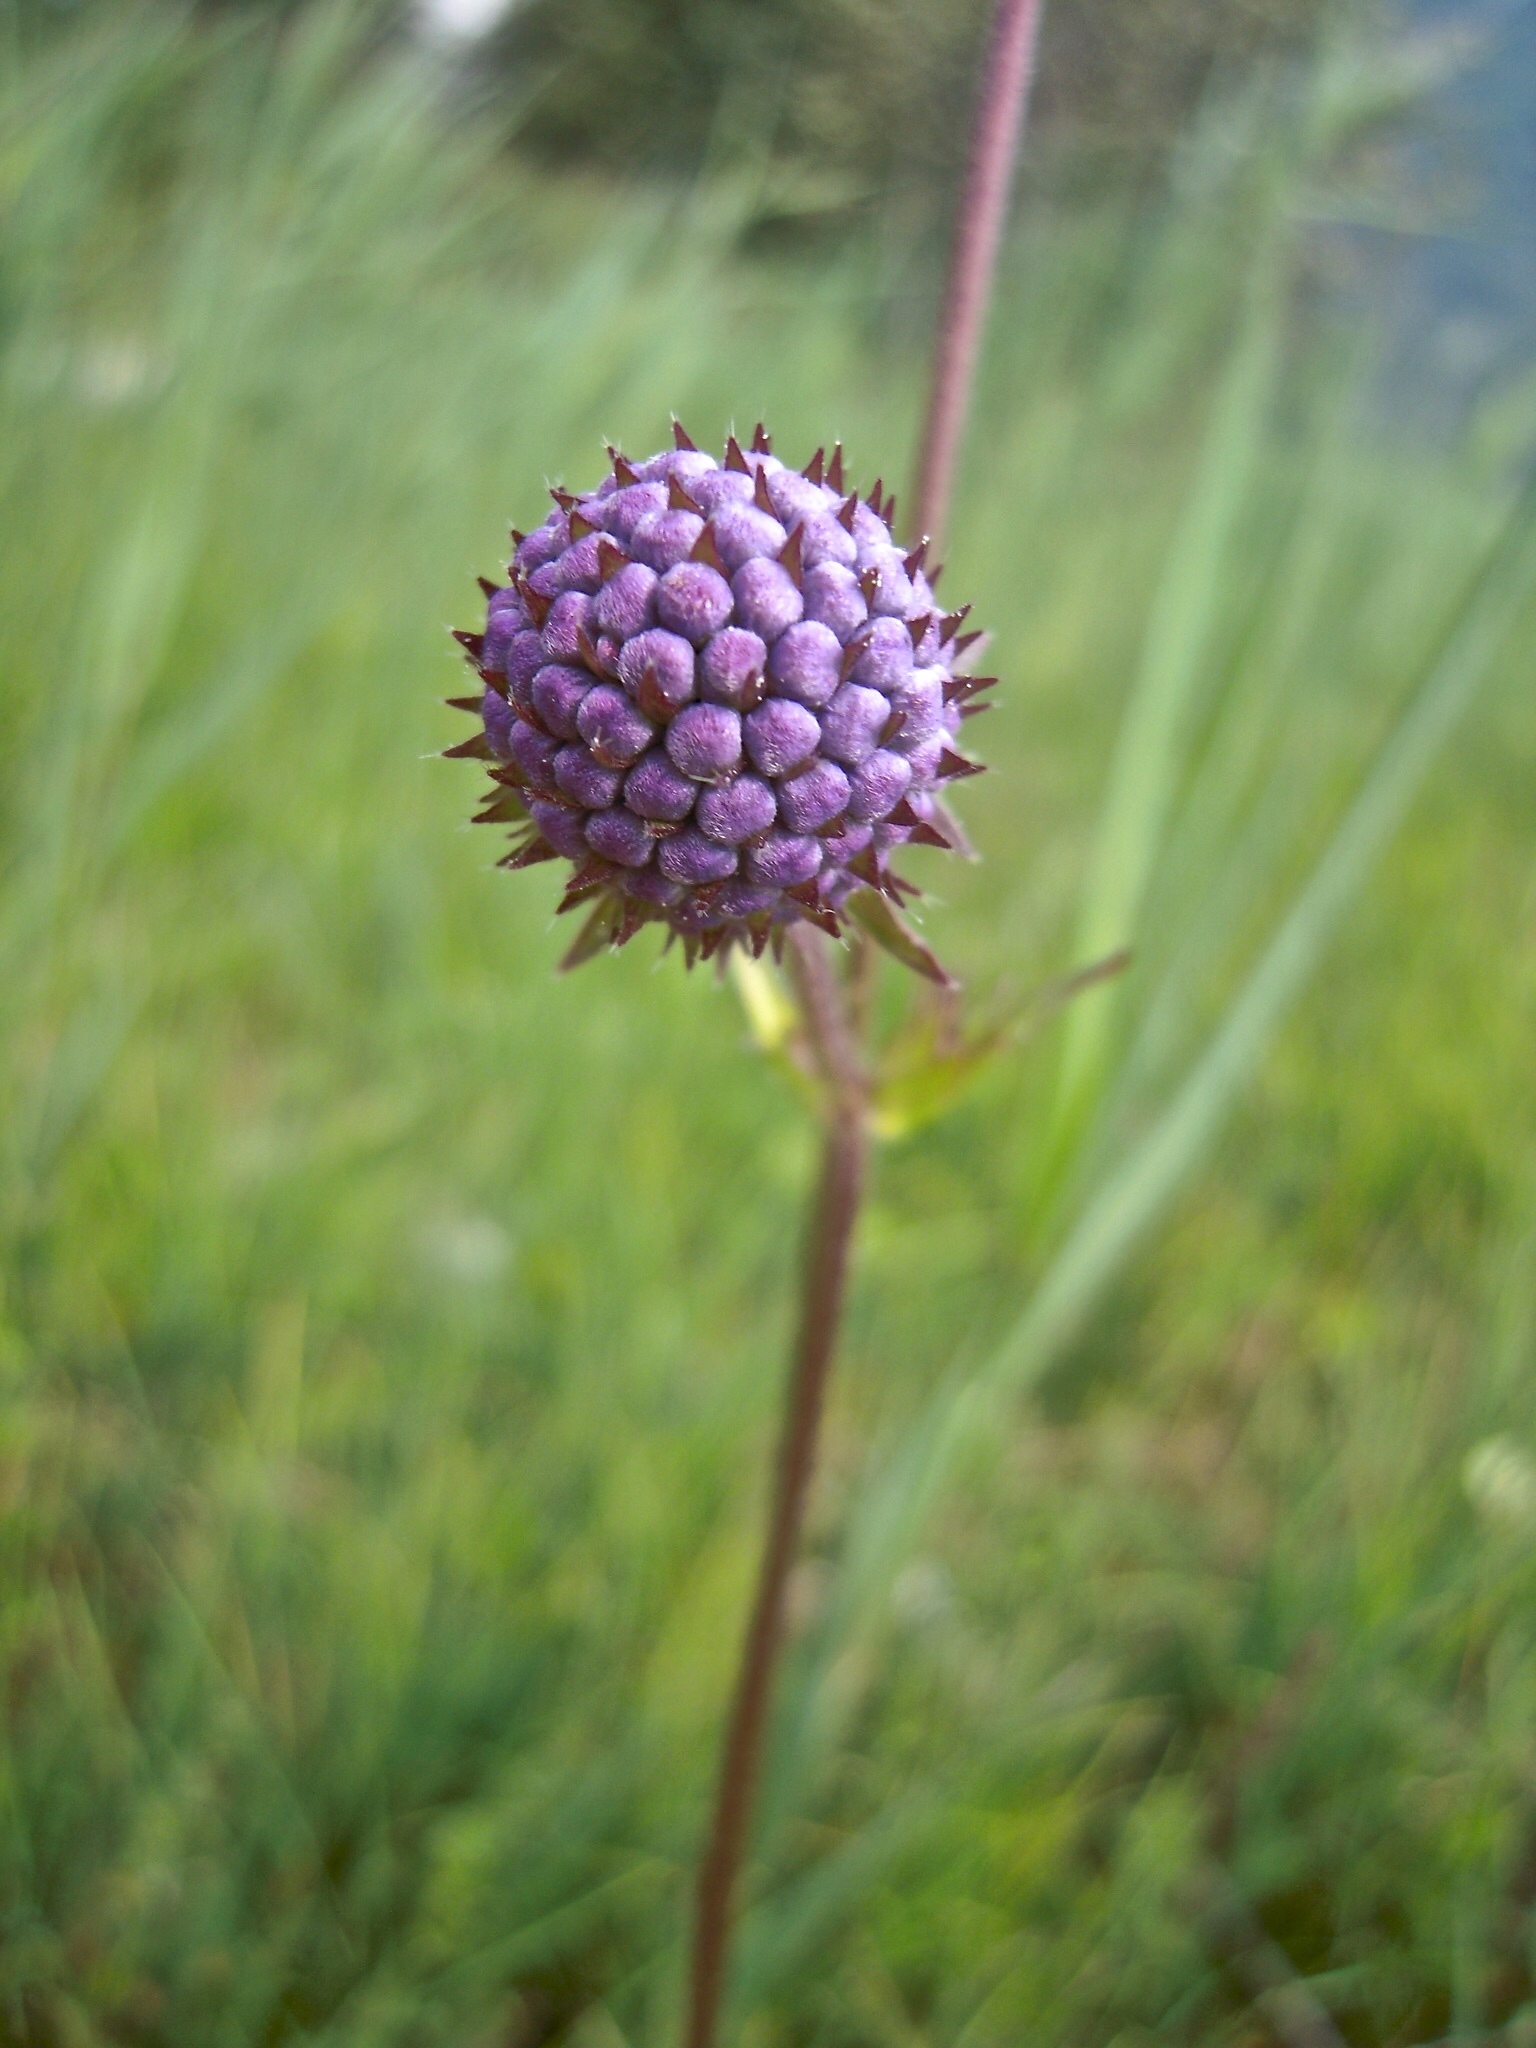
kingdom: Plantae
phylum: Tracheophyta
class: Magnoliopsida
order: Dipsacales
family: Caprifoliaceae
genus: Succisa
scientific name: Succisa pratensis
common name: Devil's-bit
